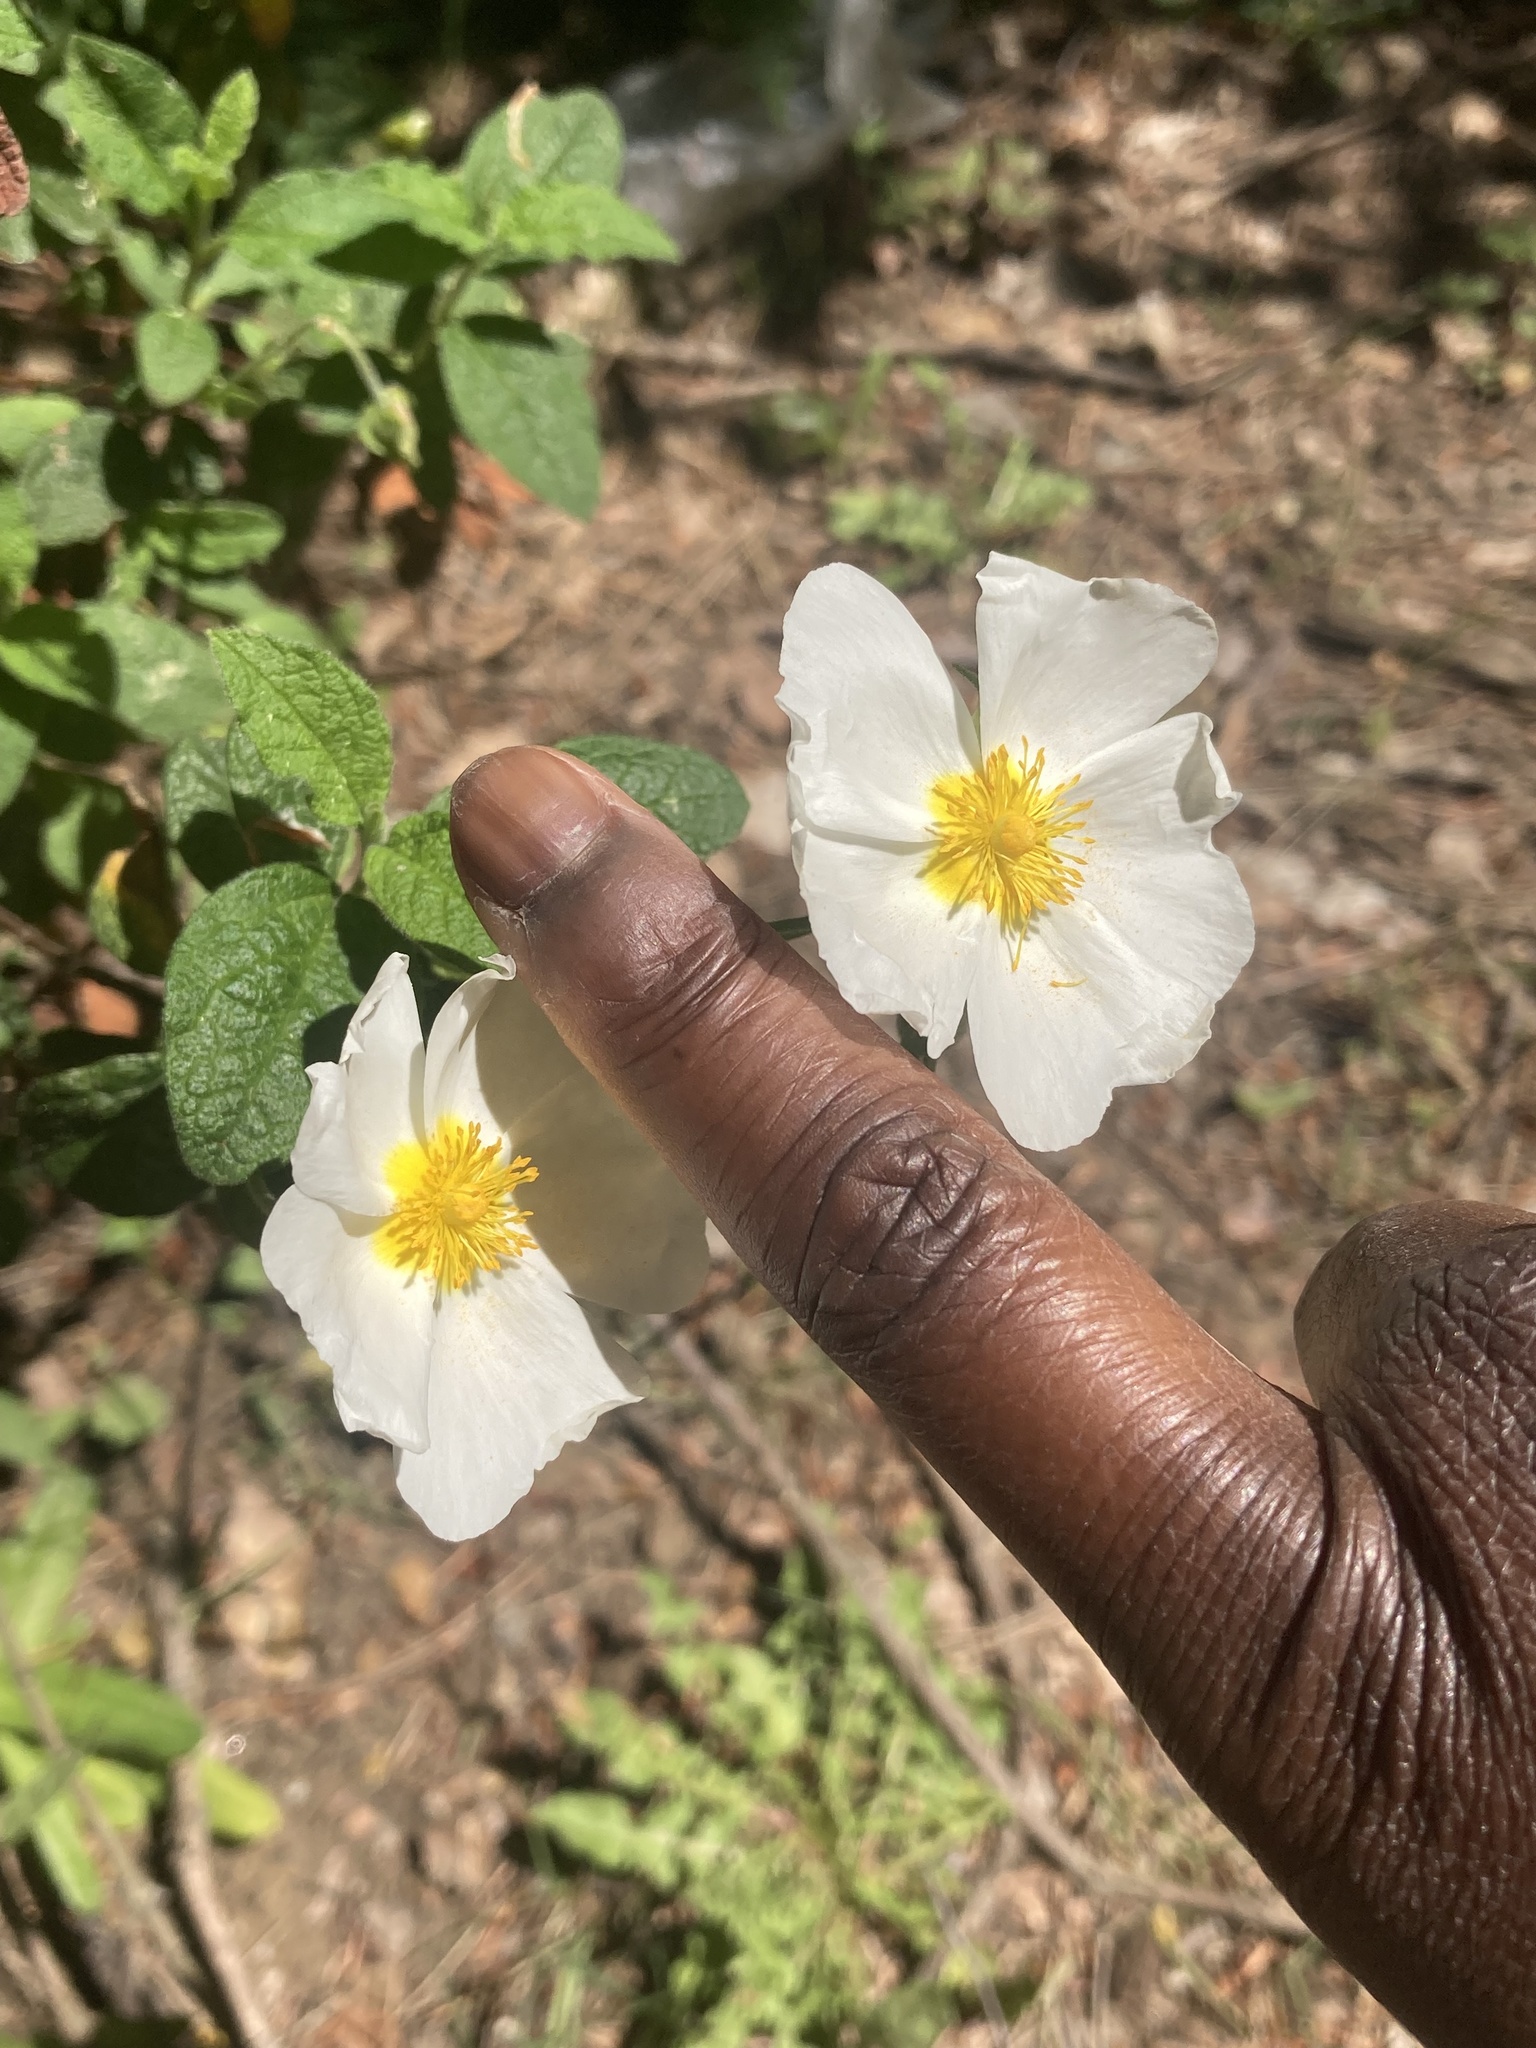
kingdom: Plantae
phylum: Tracheophyta
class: Magnoliopsida
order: Malvales
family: Cistaceae
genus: Cistus
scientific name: Cistus salviifolius
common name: Salvia cistus
